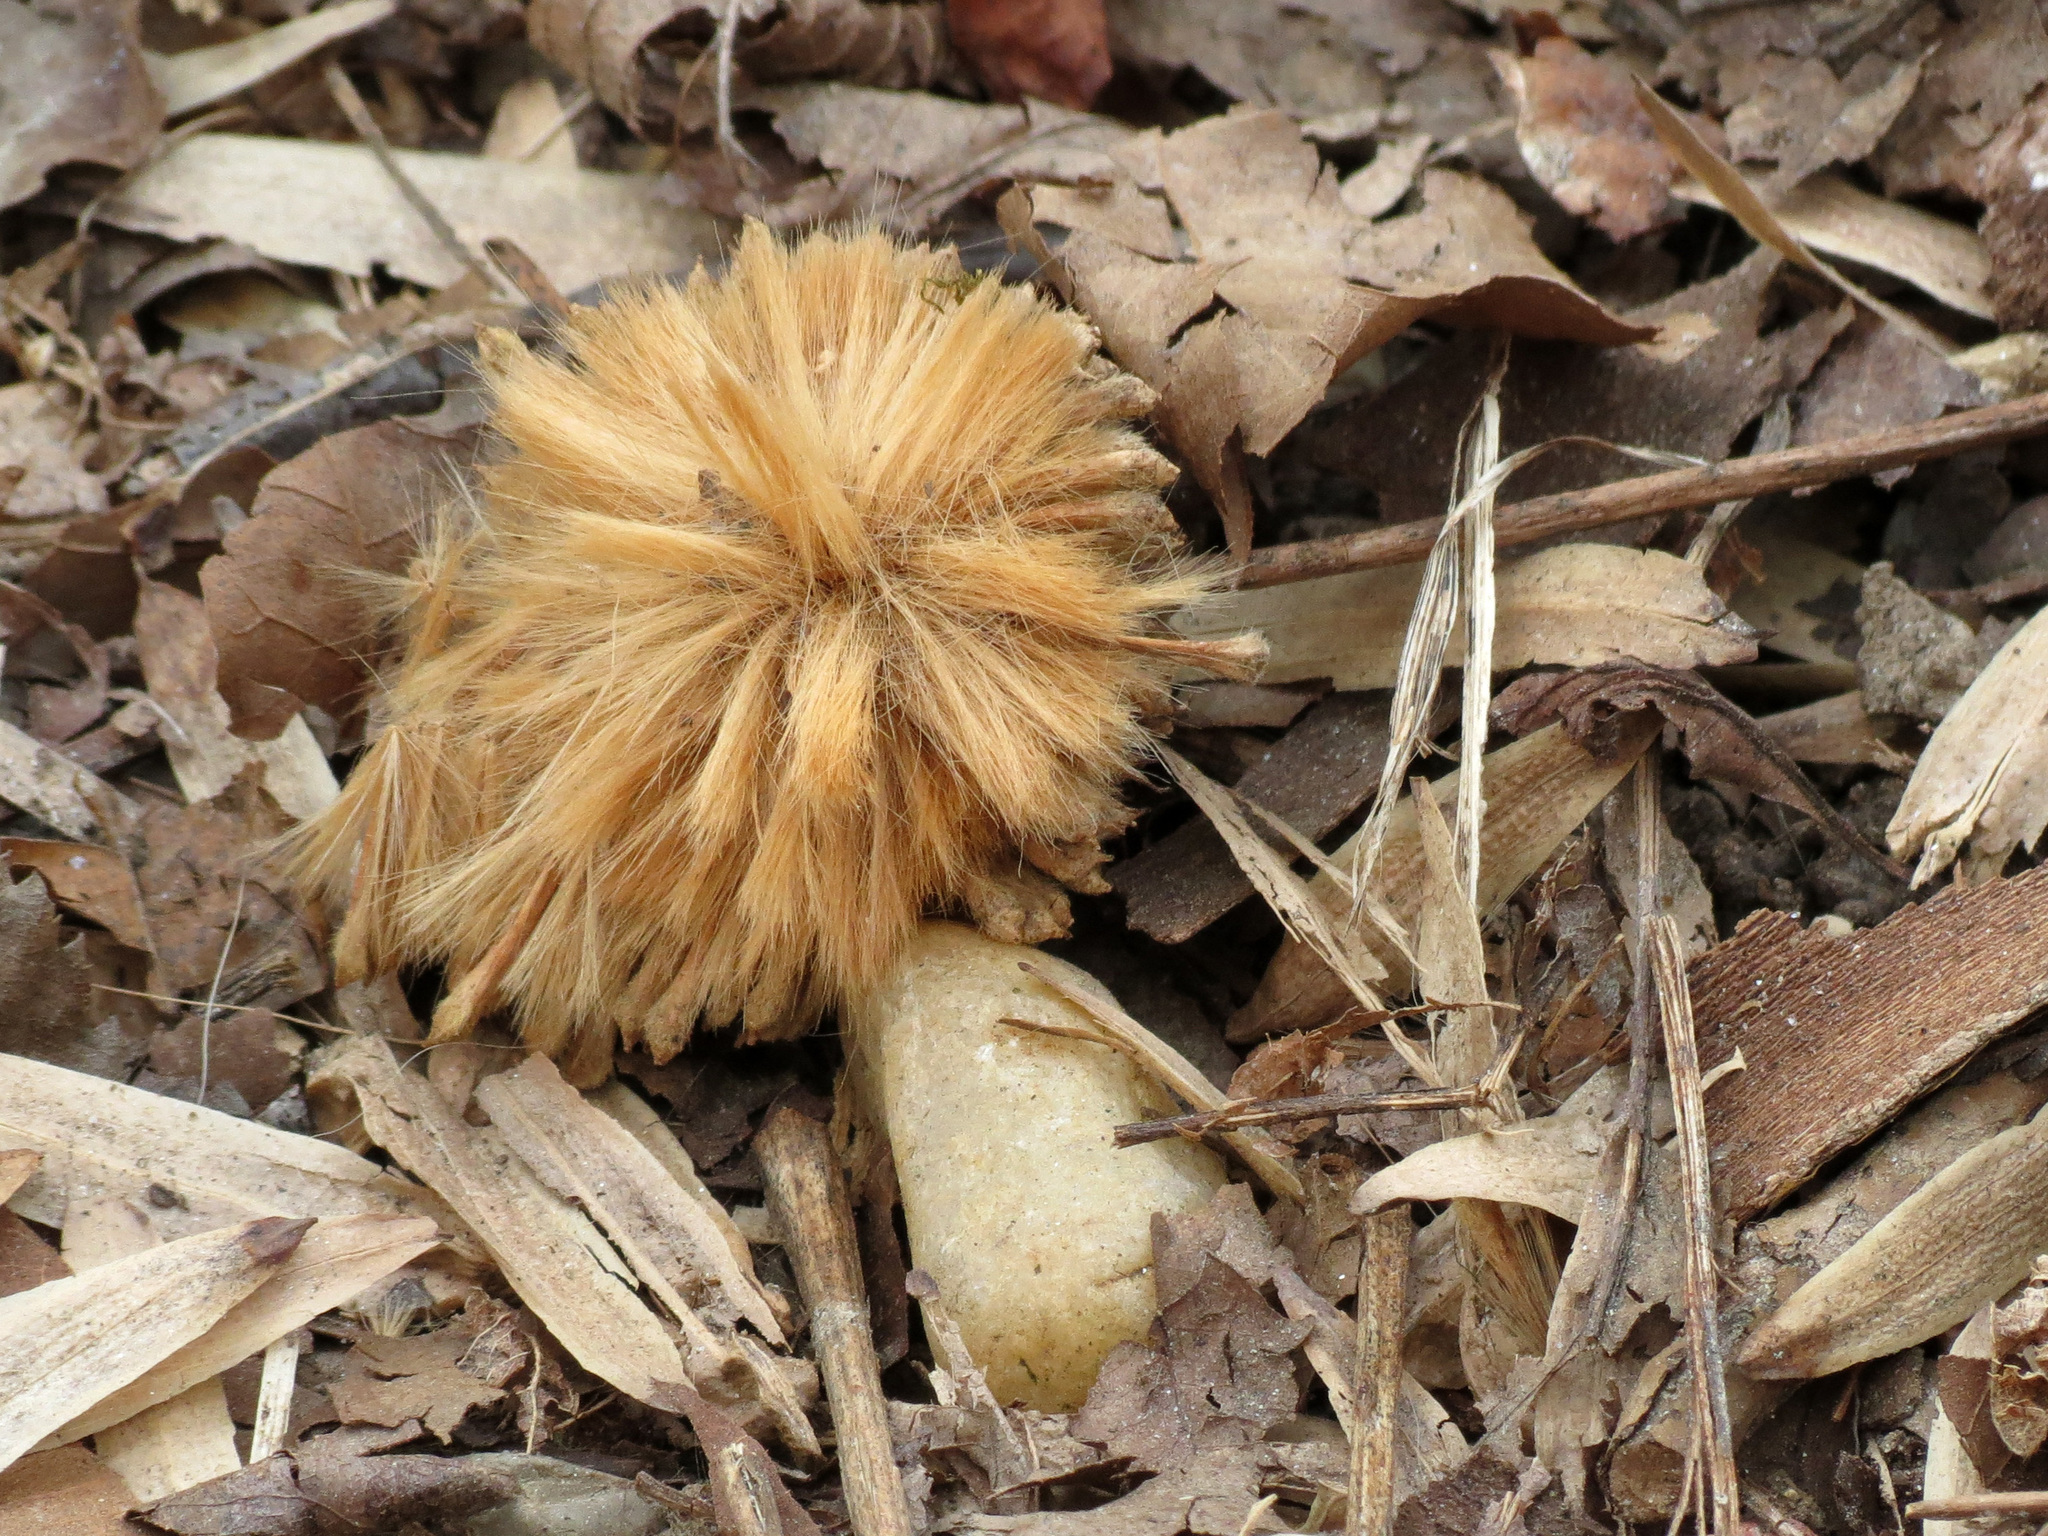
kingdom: Plantae
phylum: Tracheophyta
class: Magnoliopsida
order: Proteales
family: Platanaceae
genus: Platanus
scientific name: Platanus occidentalis
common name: American sycamore
